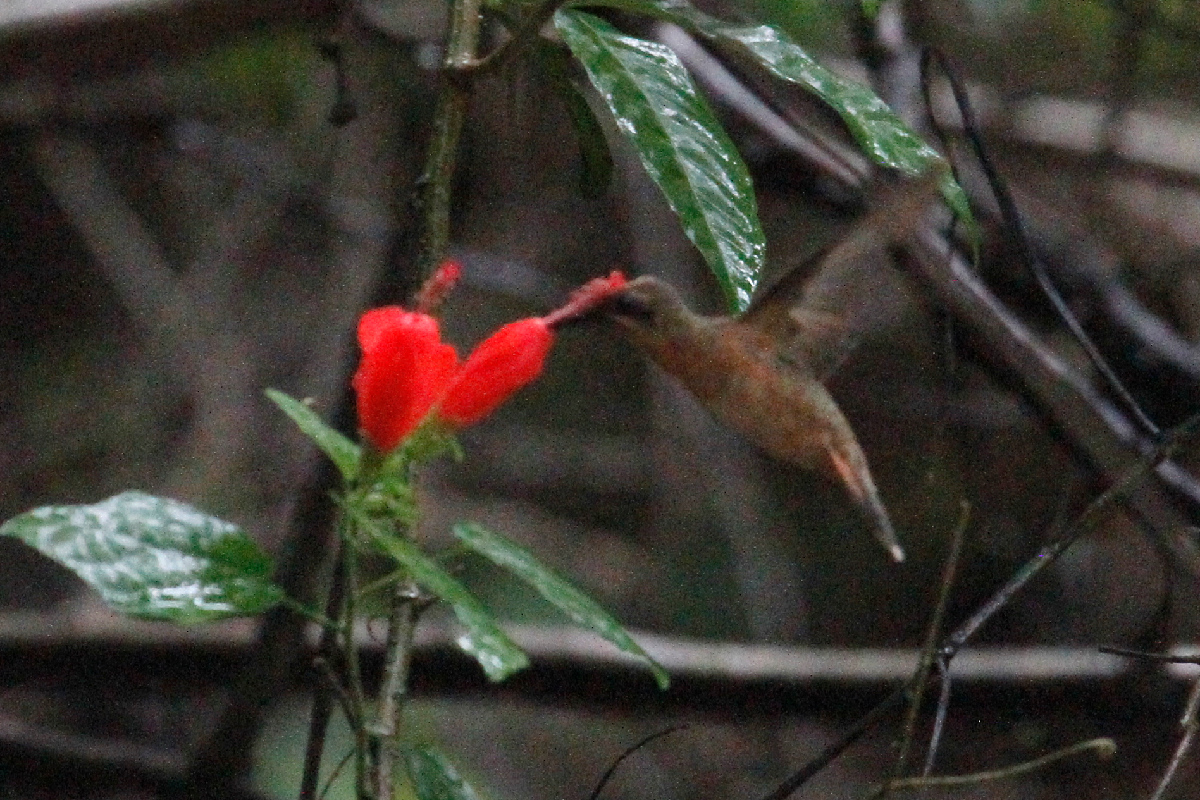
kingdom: Animalia
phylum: Chordata
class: Aves
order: Apodiformes
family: Trochilidae
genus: Glaucis
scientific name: Glaucis aeneus
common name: Bronzy hermit
